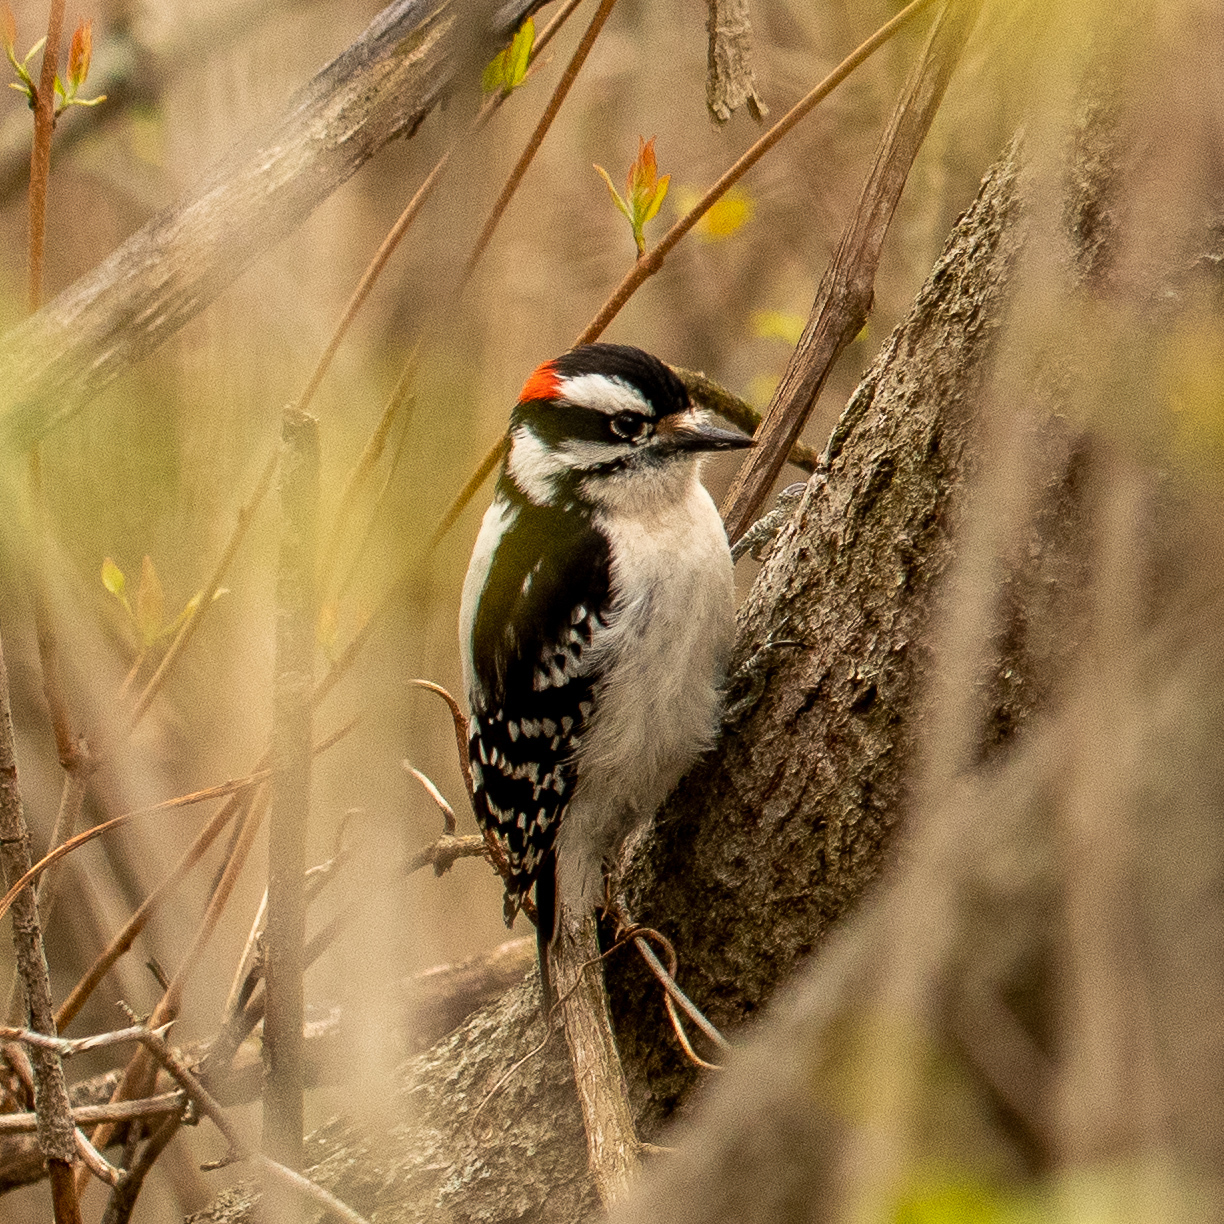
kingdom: Animalia
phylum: Chordata
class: Aves
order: Piciformes
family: Picidae
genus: Dryobates
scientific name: Dryobates pubescens
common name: Downy woodpecker
